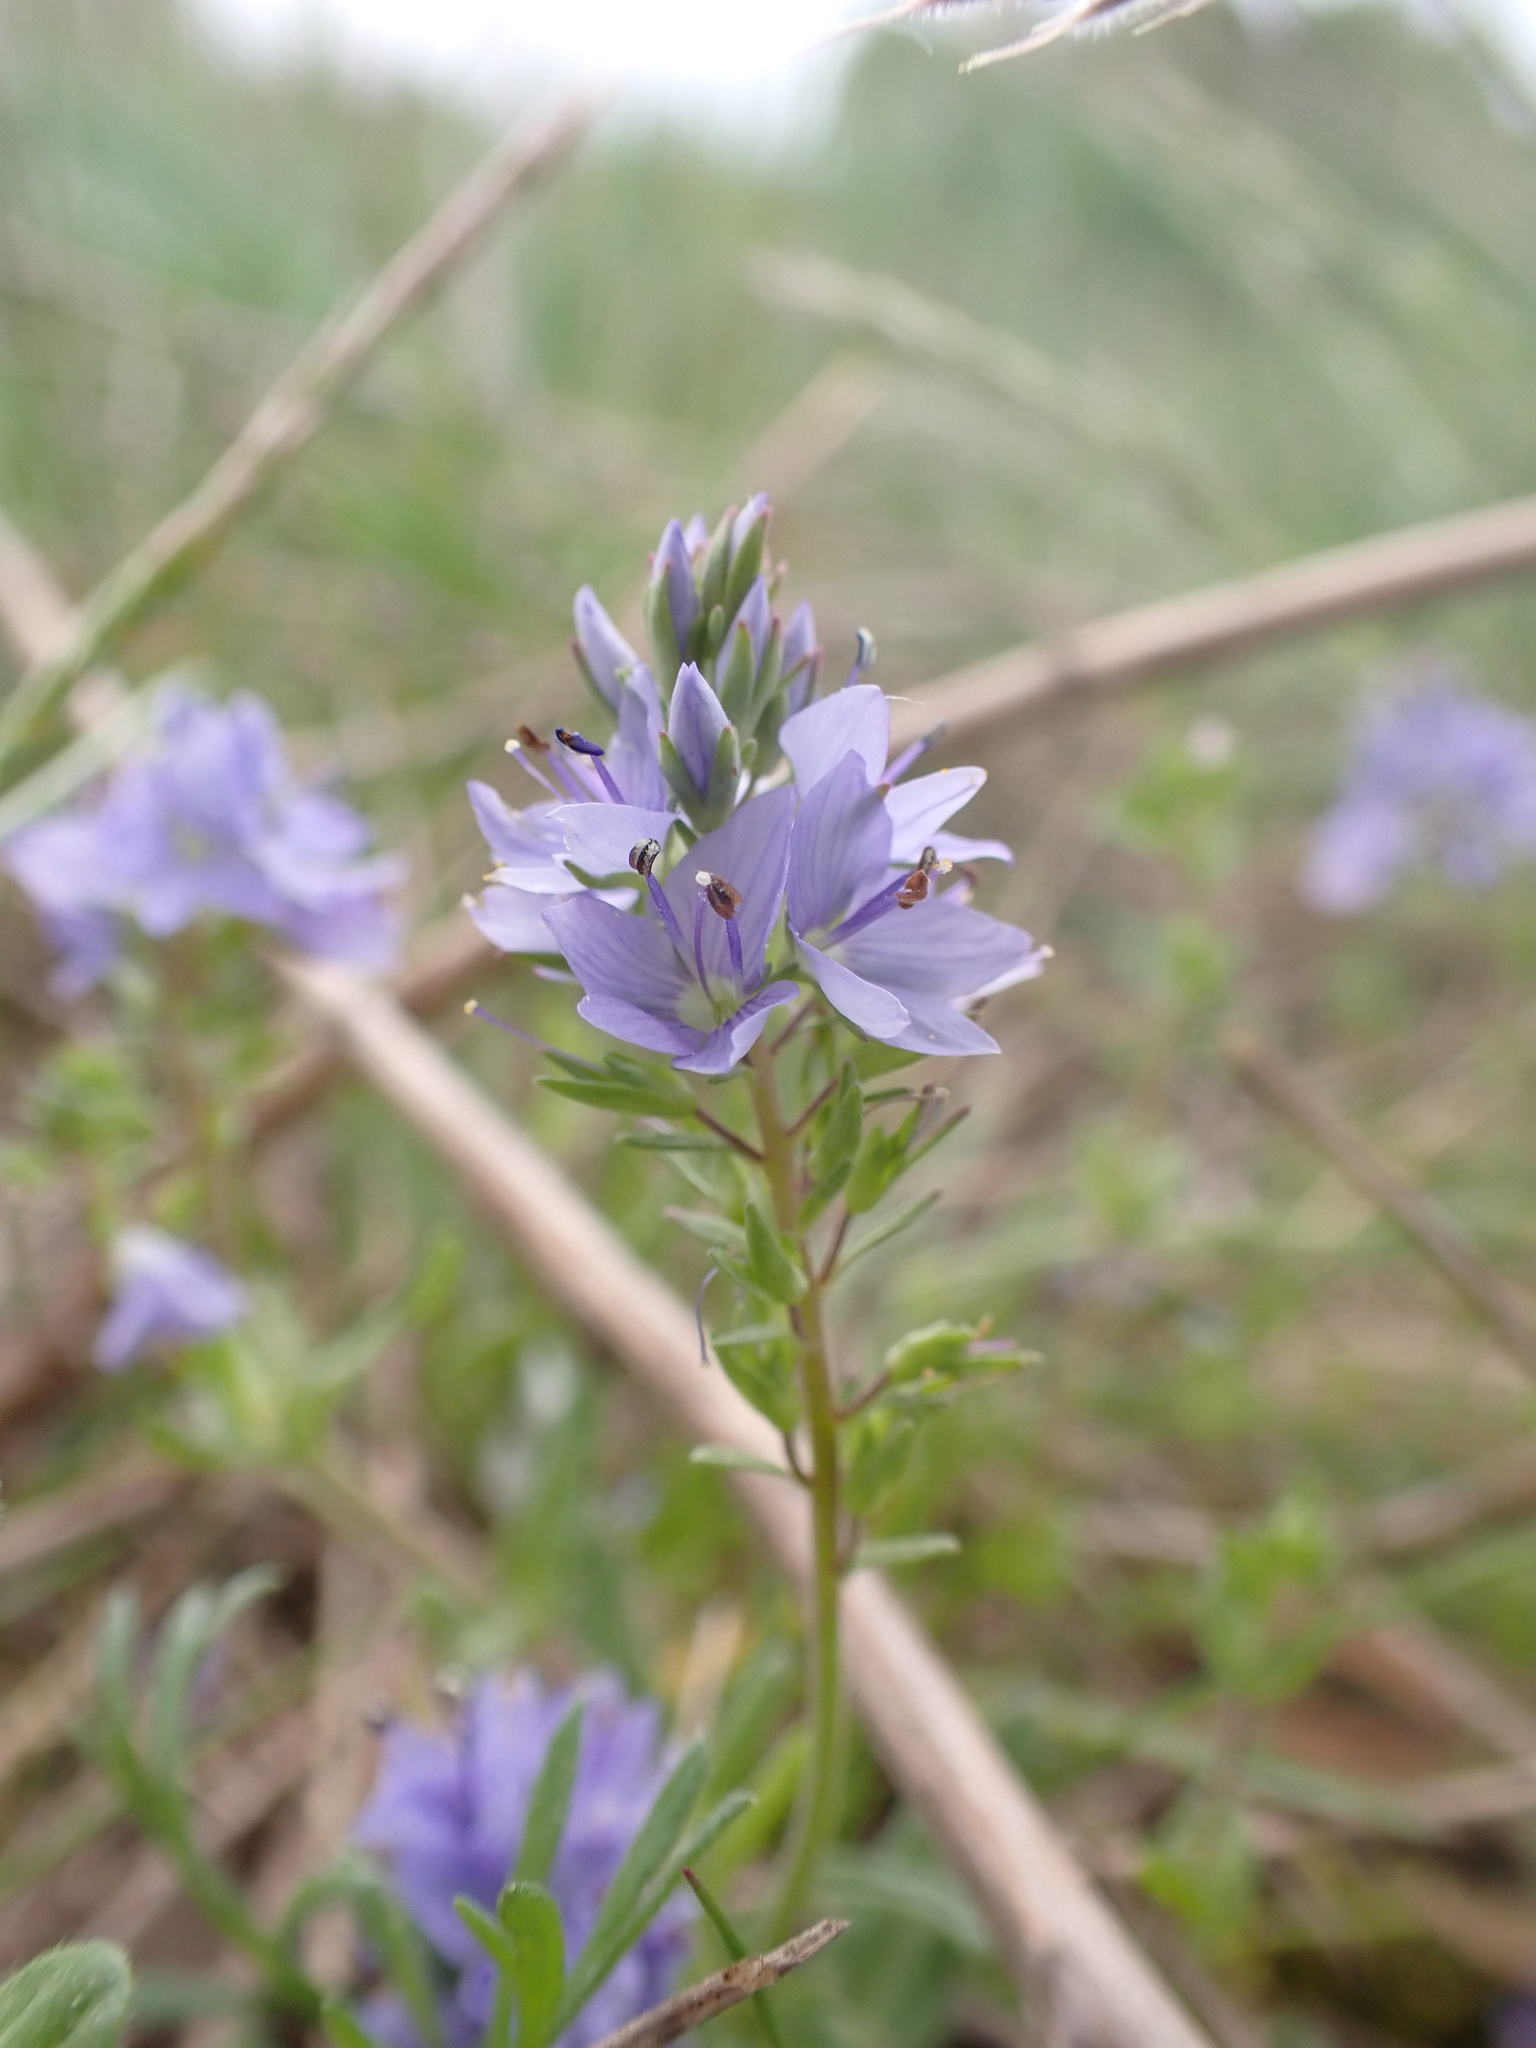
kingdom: Plantae
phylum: Tracheophyta
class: Magnoliopsida
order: Lamiales
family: Plantaginaceae
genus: Veronica
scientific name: Veronica prostrata
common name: Prostrate speedwell
